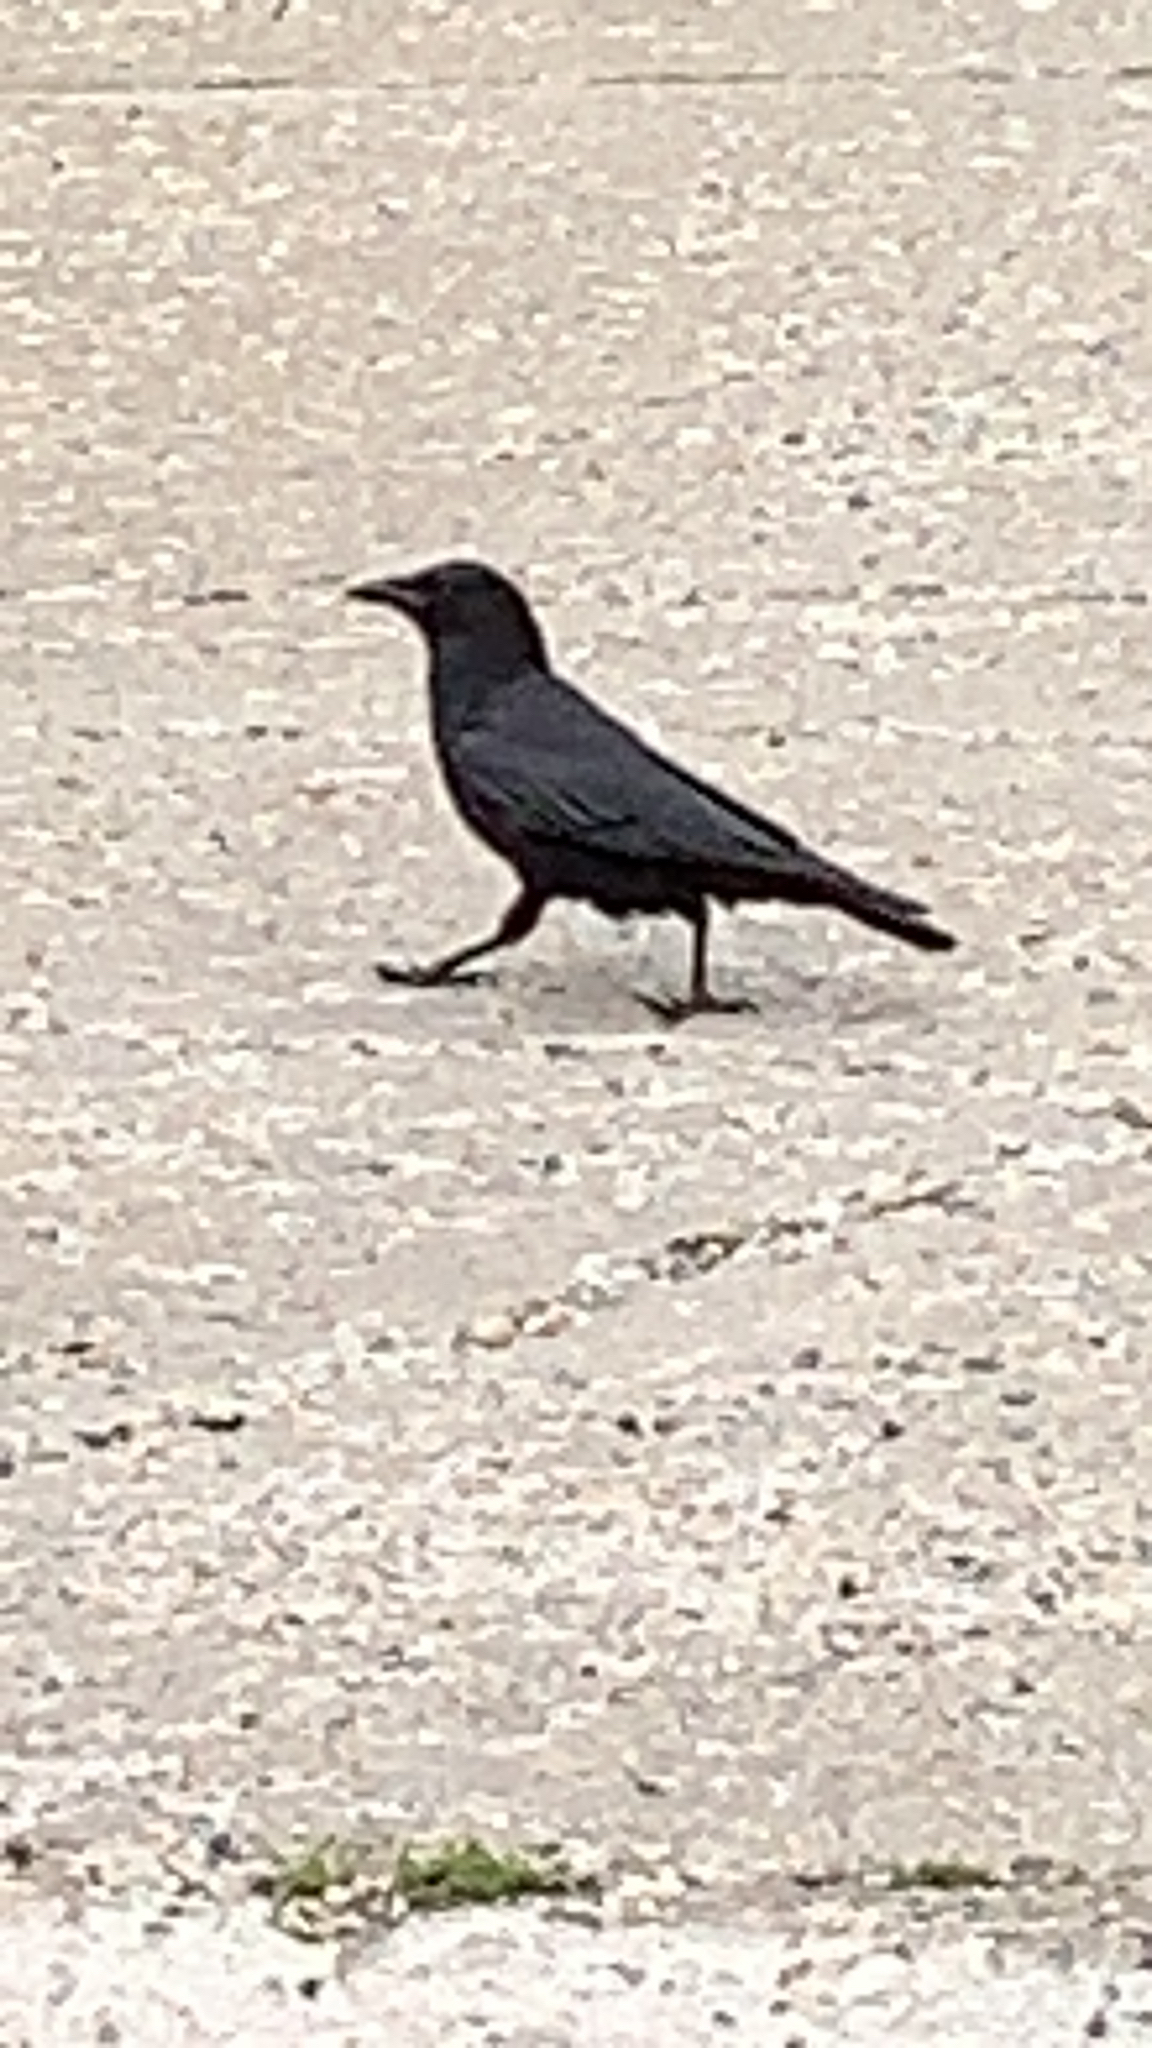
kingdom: Animalia
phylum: Chordata
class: Aves
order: Passeriformes
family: Corvidae
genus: Corvus
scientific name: Corvus brachyrhynchos
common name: American crow
